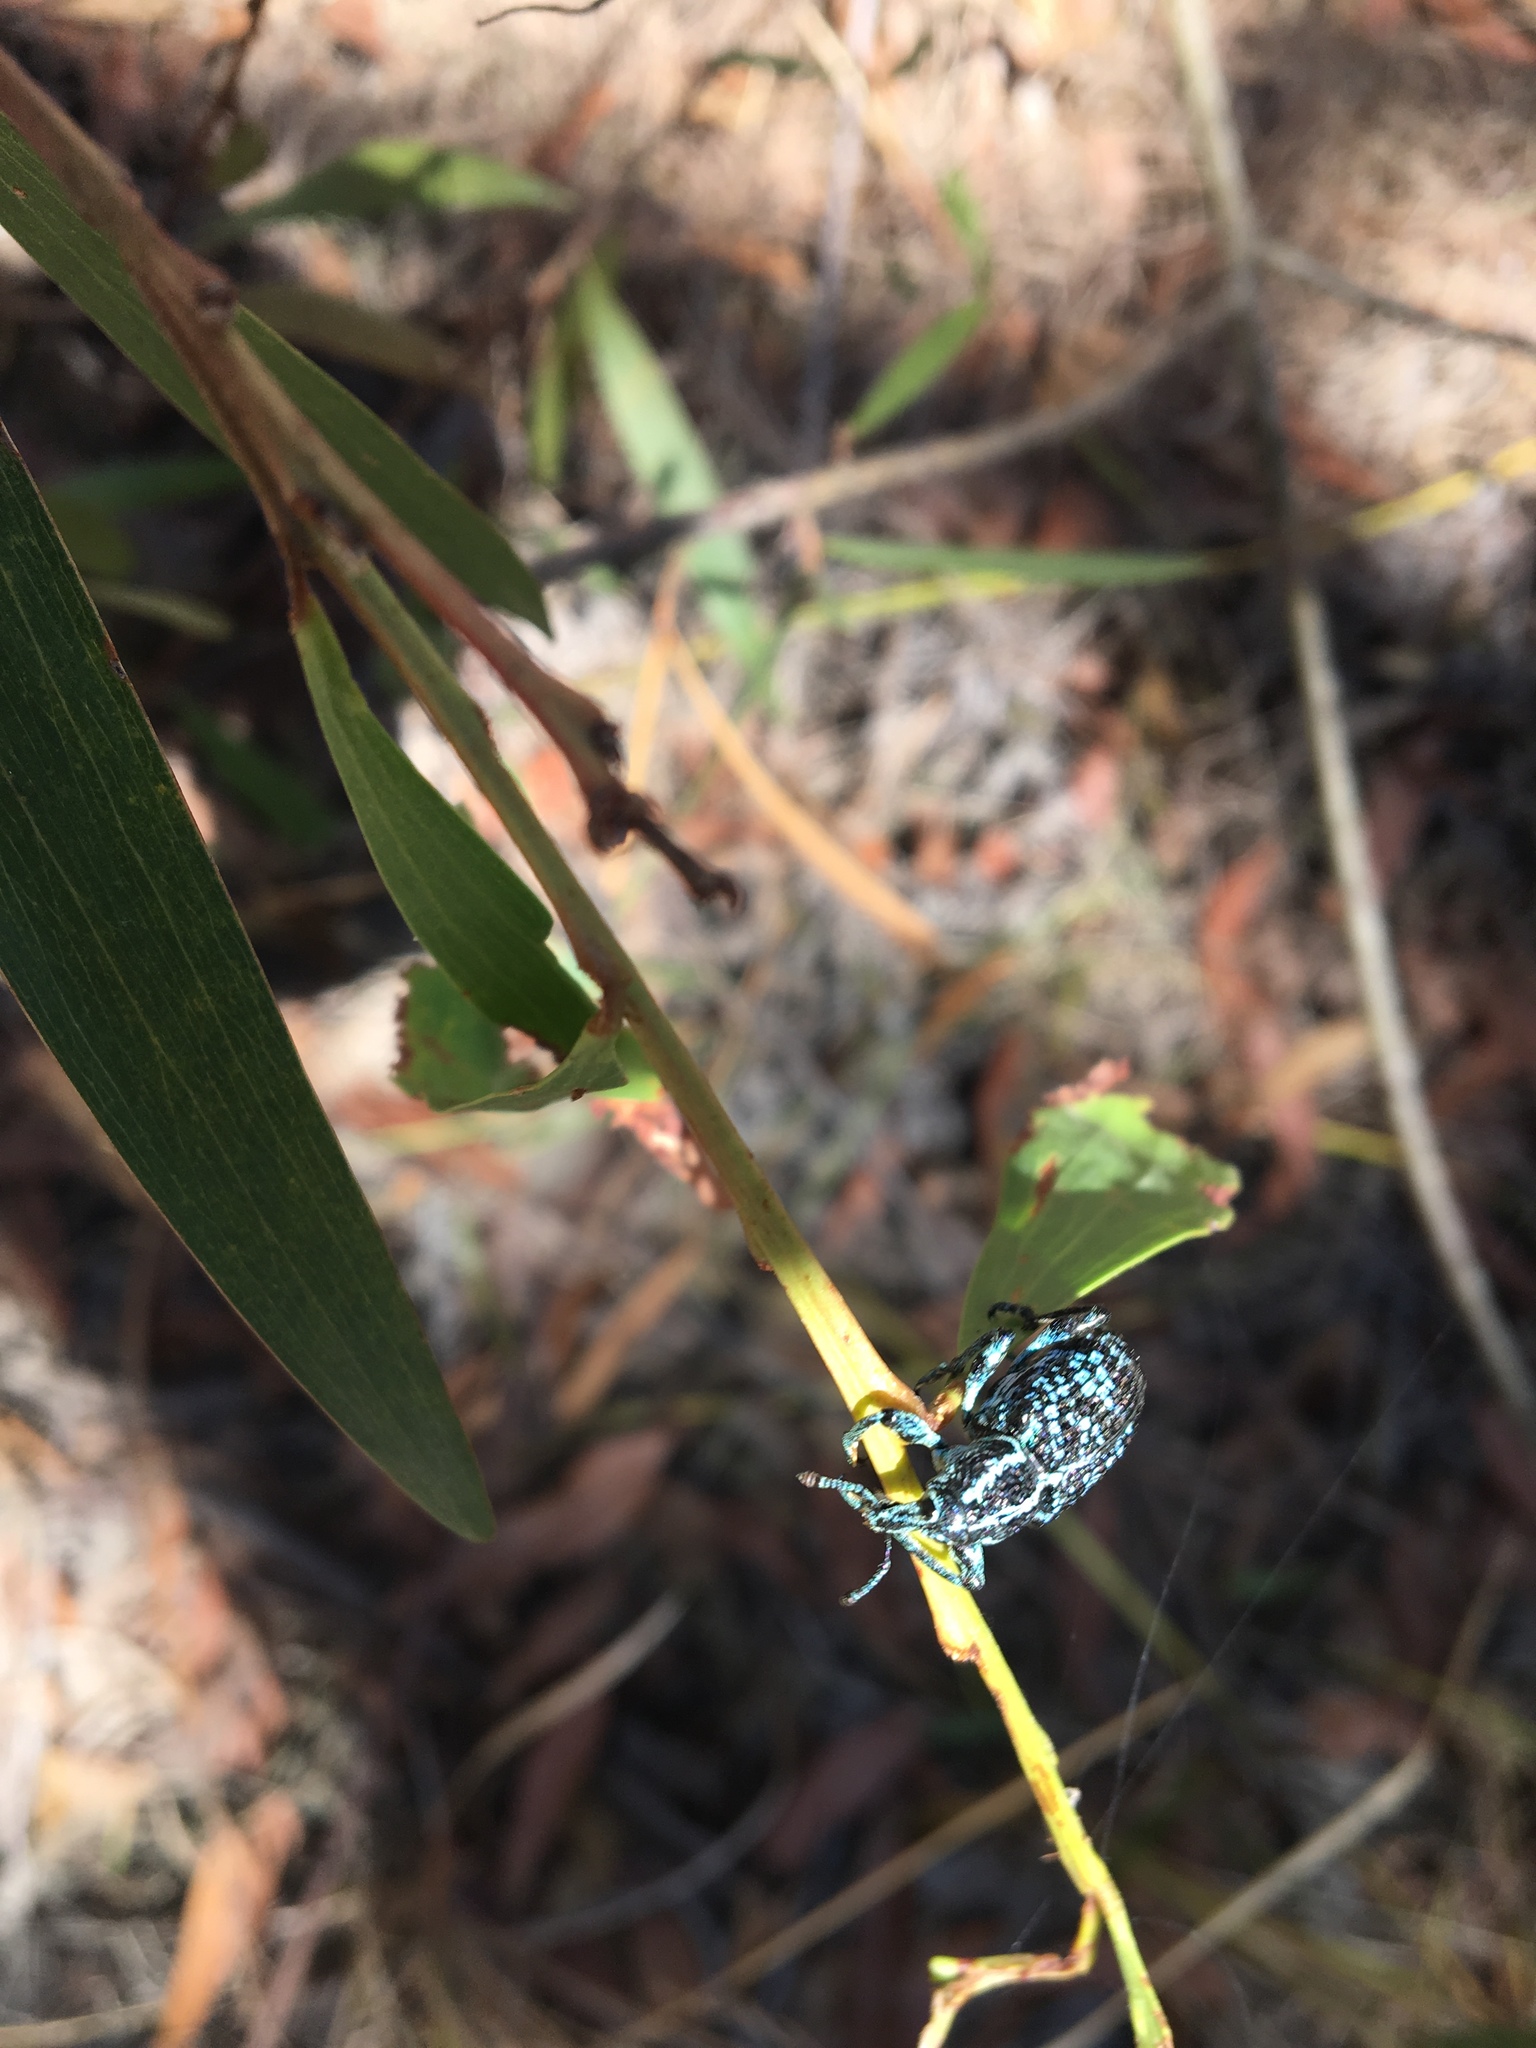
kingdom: Animalia
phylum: Arthropoda
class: Insecta
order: Coleoptera
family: Curculionidae
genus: Chrysolopus
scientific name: Chrysolopus spectabilis
